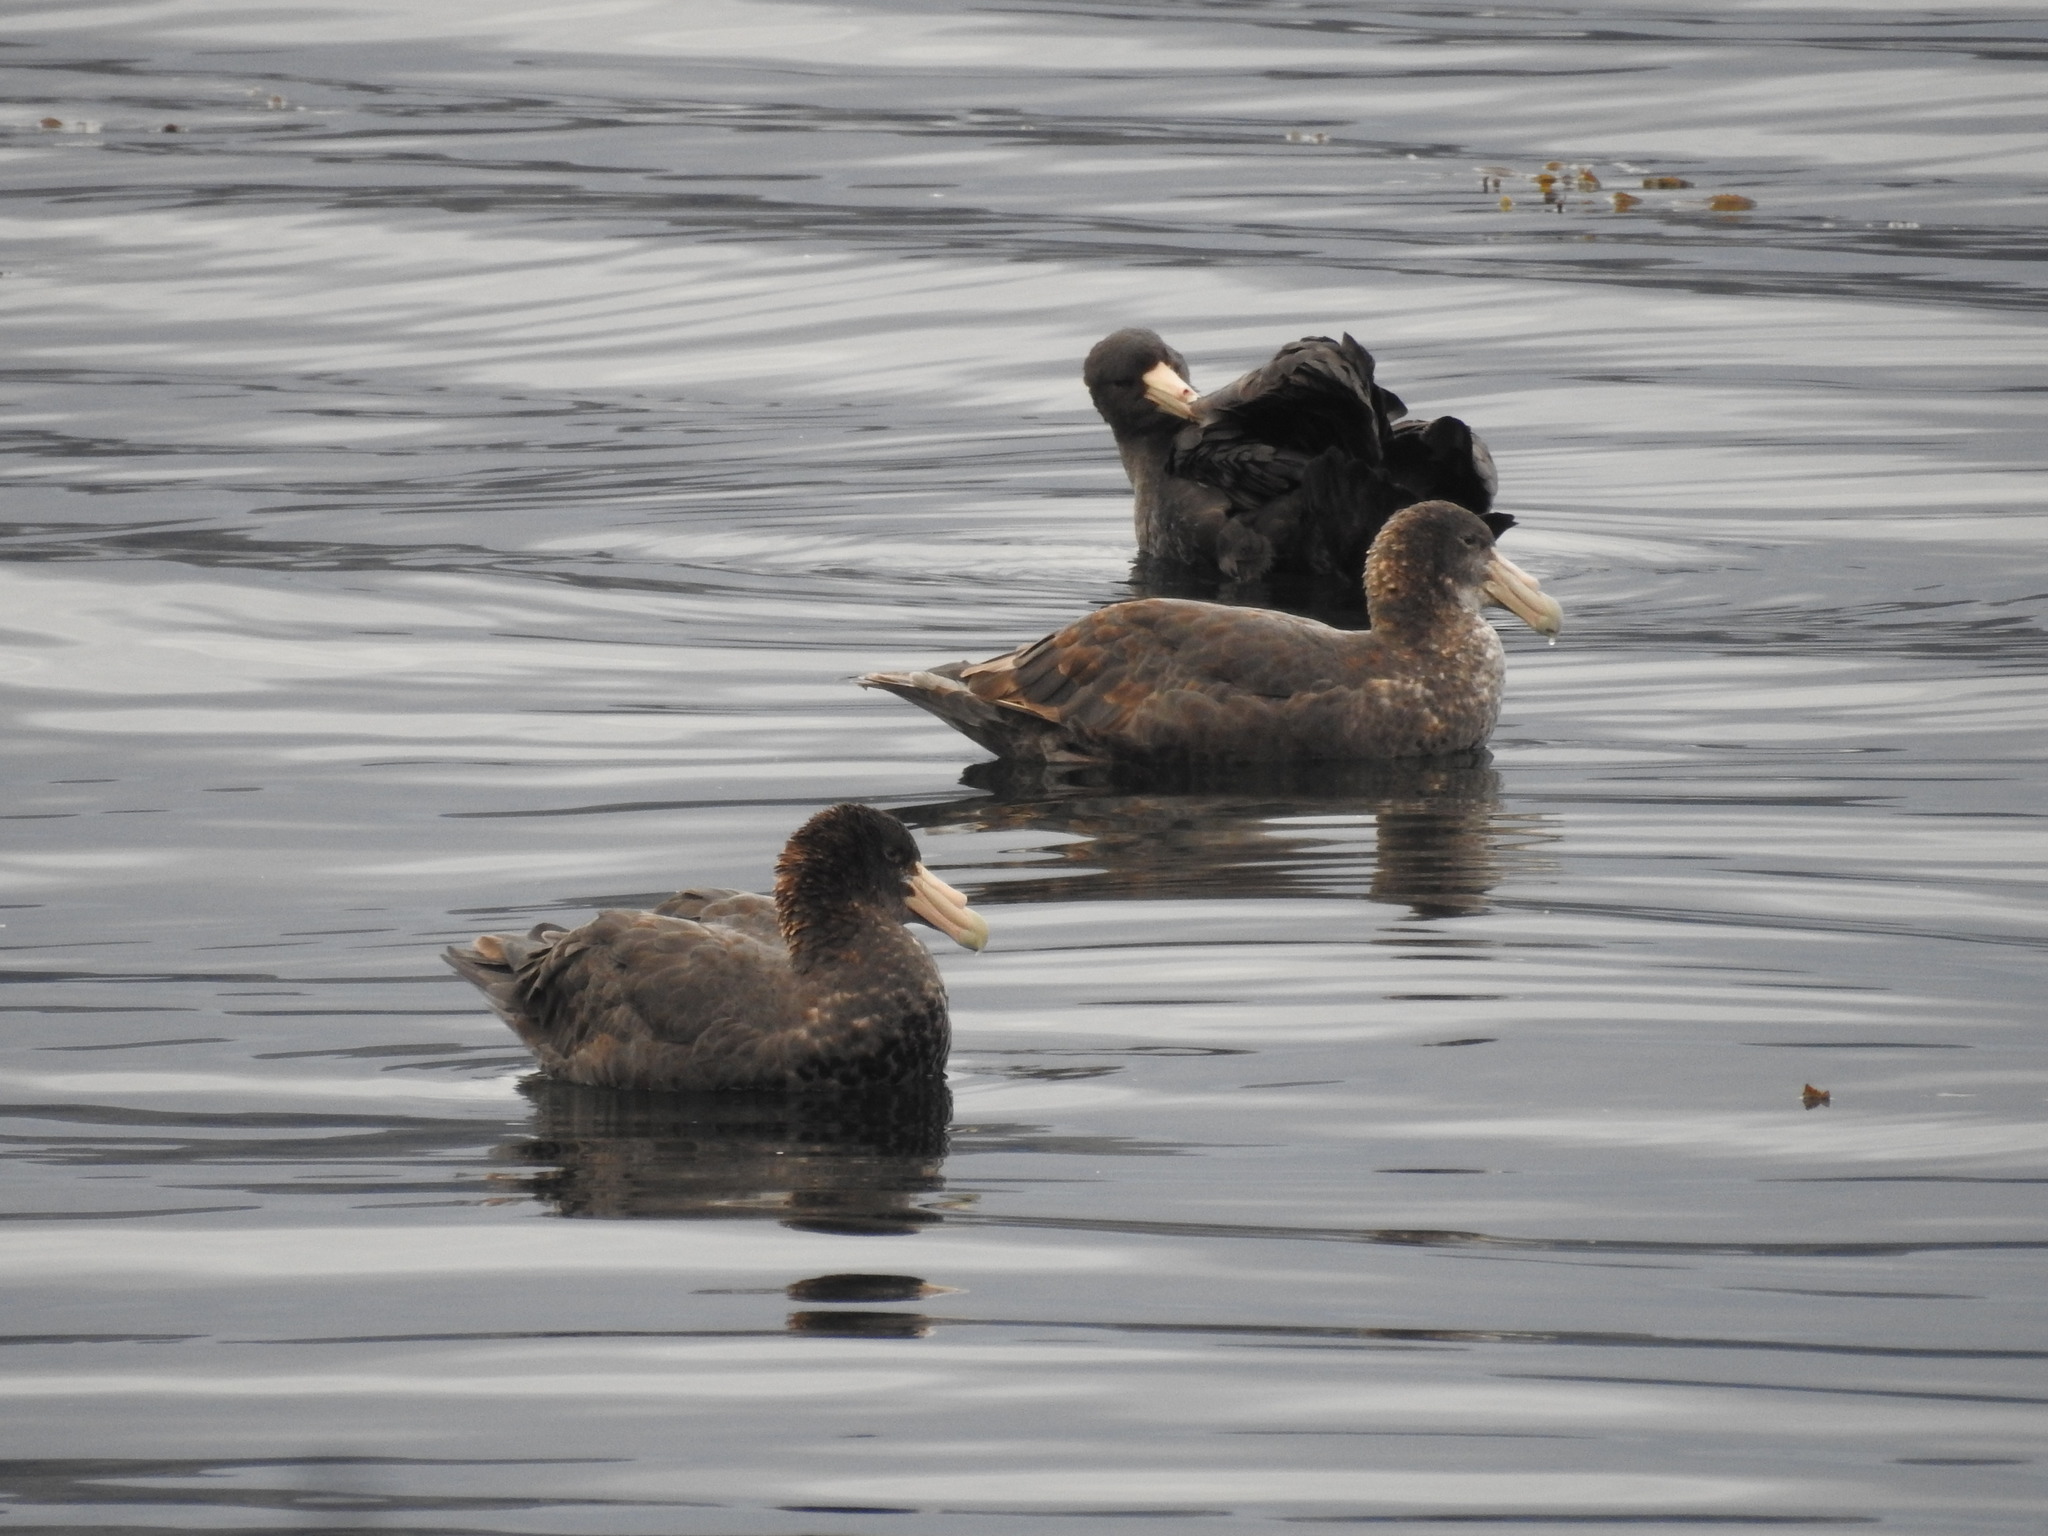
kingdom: Animalia
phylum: Chordata
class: Aves
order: Procellariiformes
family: Procellariidae
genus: Macronectes
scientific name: Macronectes giganteus
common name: Southern giant petrel
